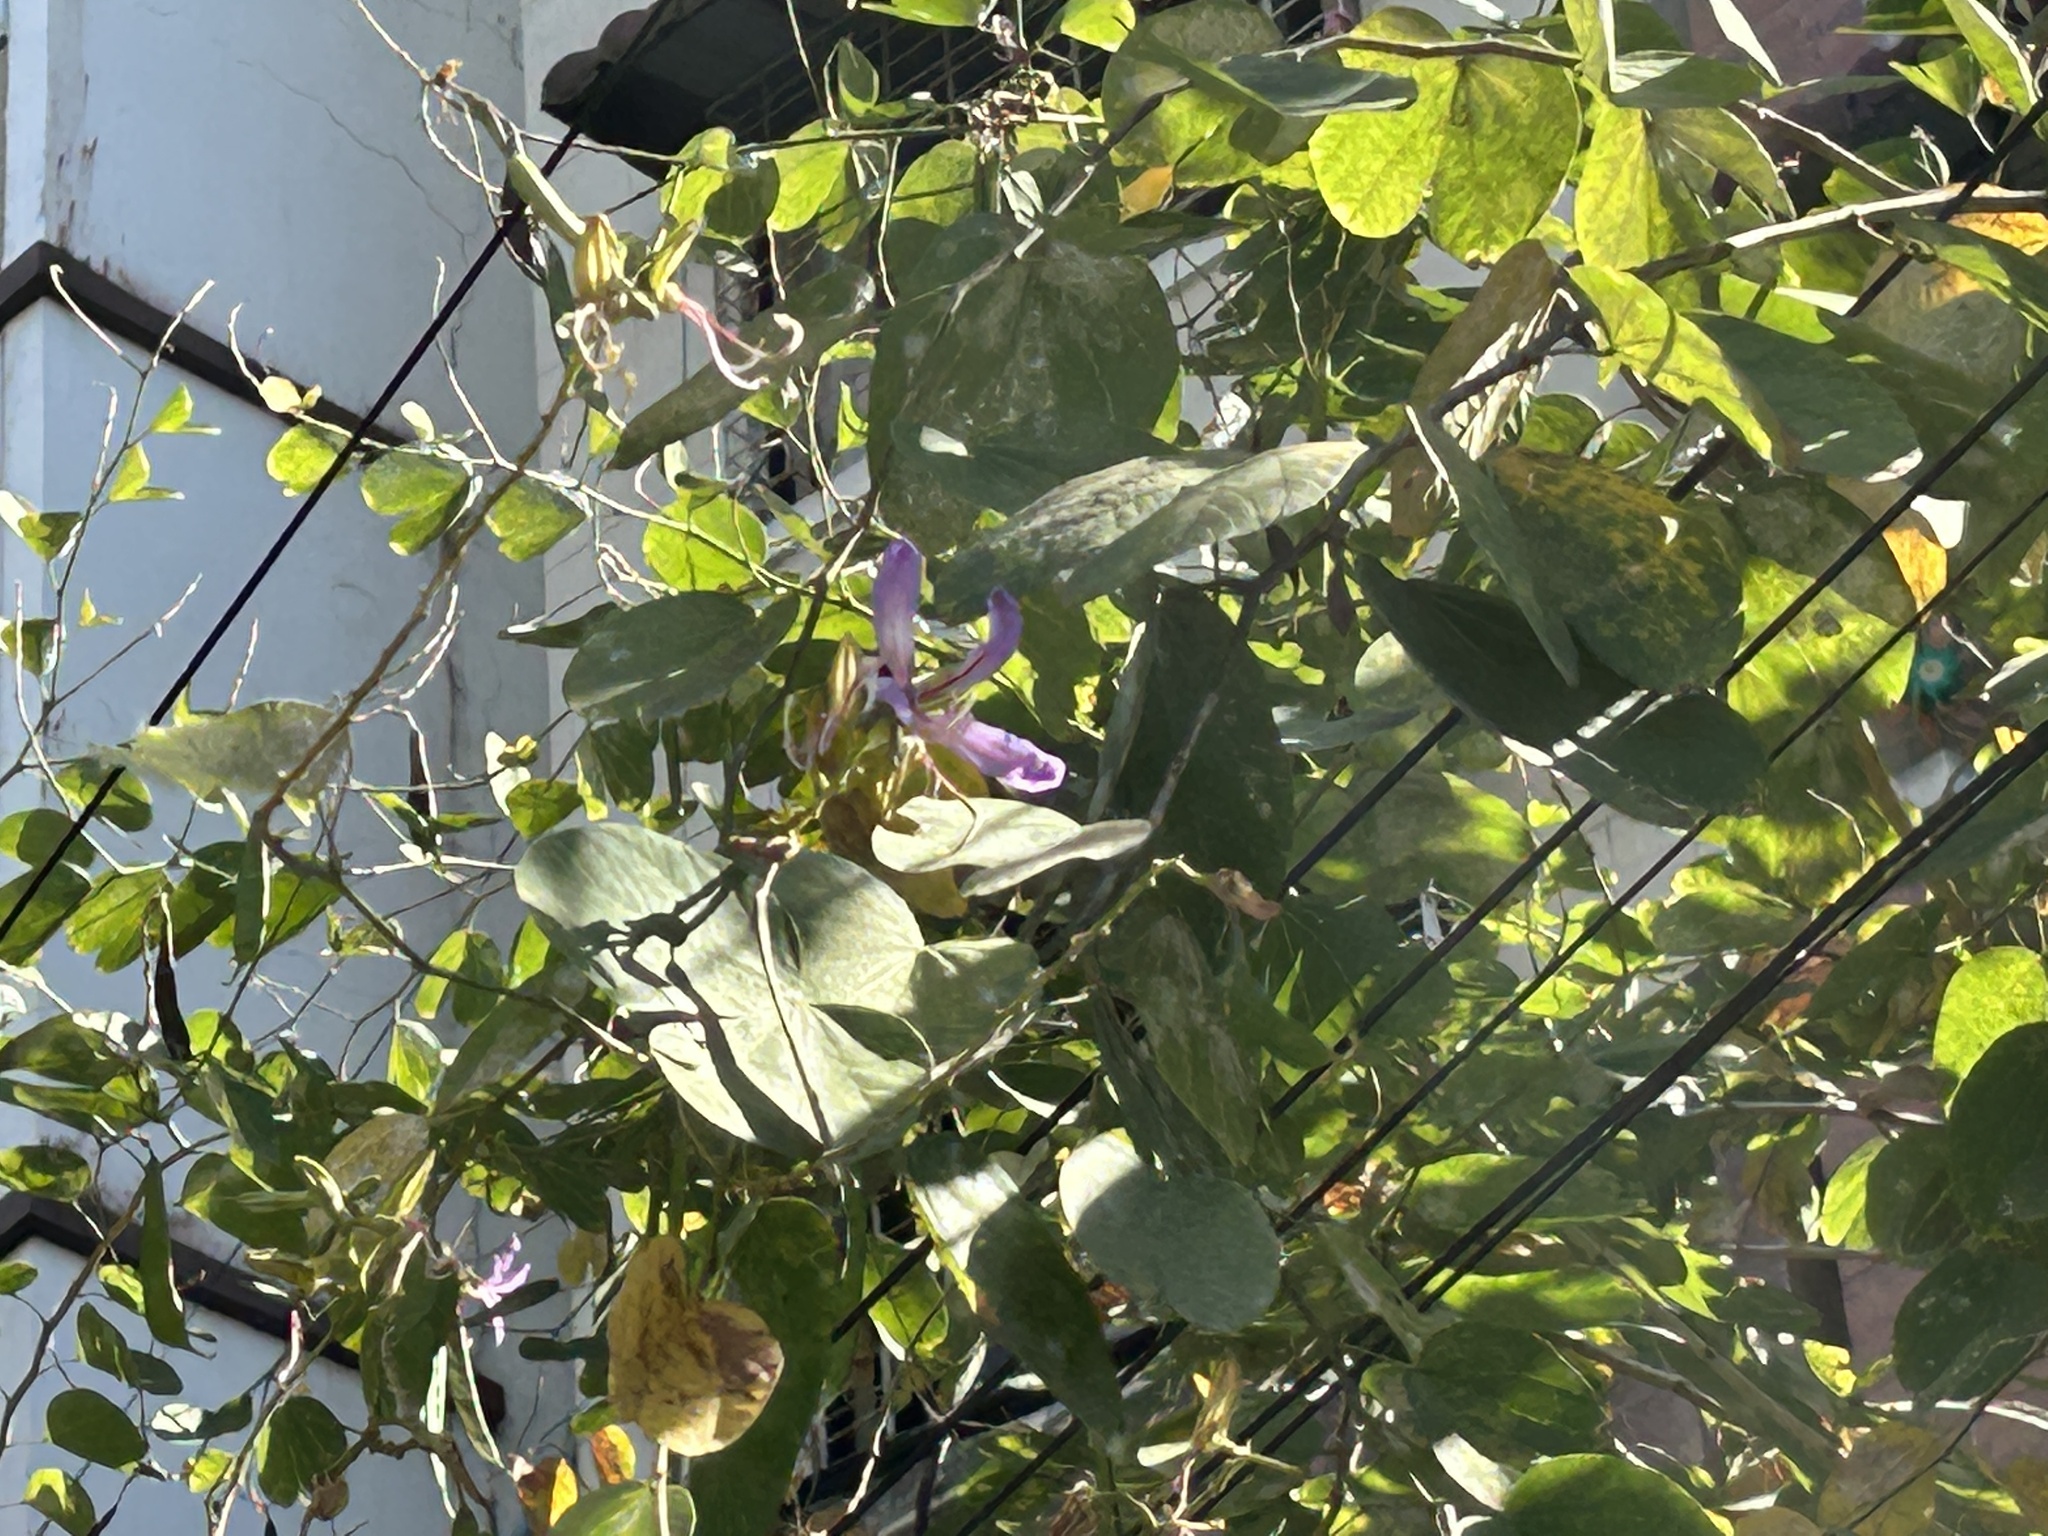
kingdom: Plantae
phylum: Tracheophyta
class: Magnoliopsida
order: Fabales
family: Fabaceae
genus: Bauhinia
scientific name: Bauhinia purpurea
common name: Butterfly-tree
